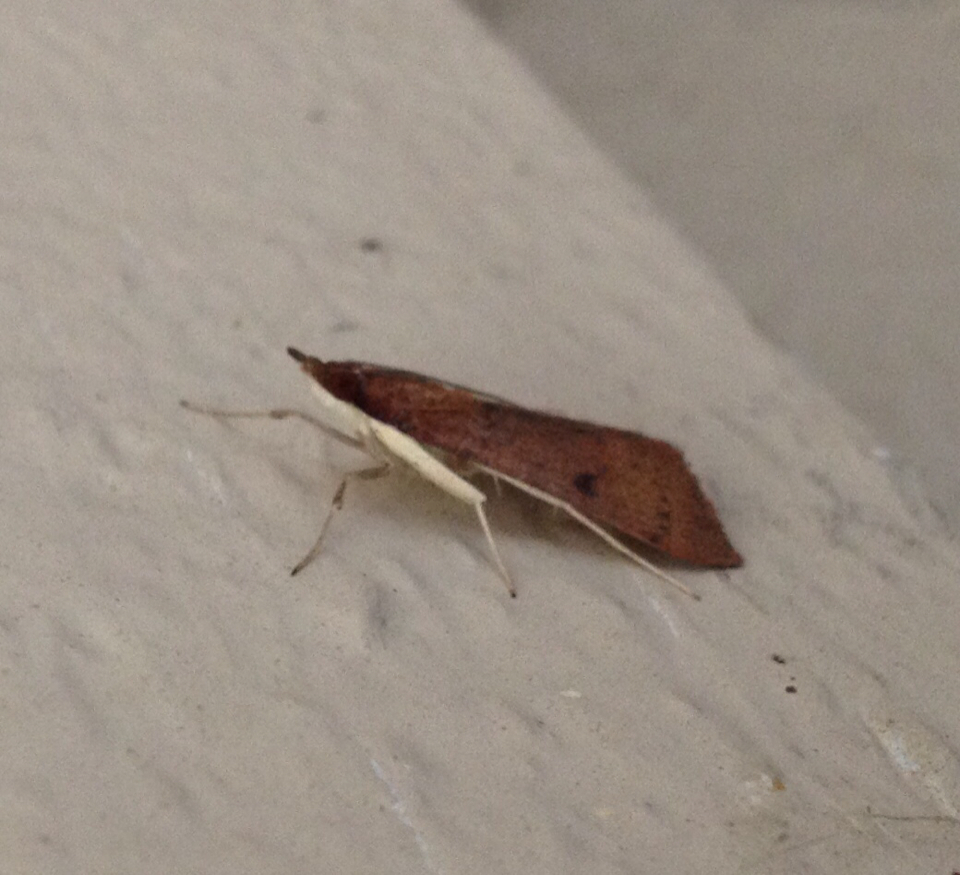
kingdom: Animalia
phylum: Arthropoda
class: Insecta
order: Lepidoptera
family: Crambidae
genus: Uresiphita
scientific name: Uresiphita reversalis
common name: Genista broom moth
